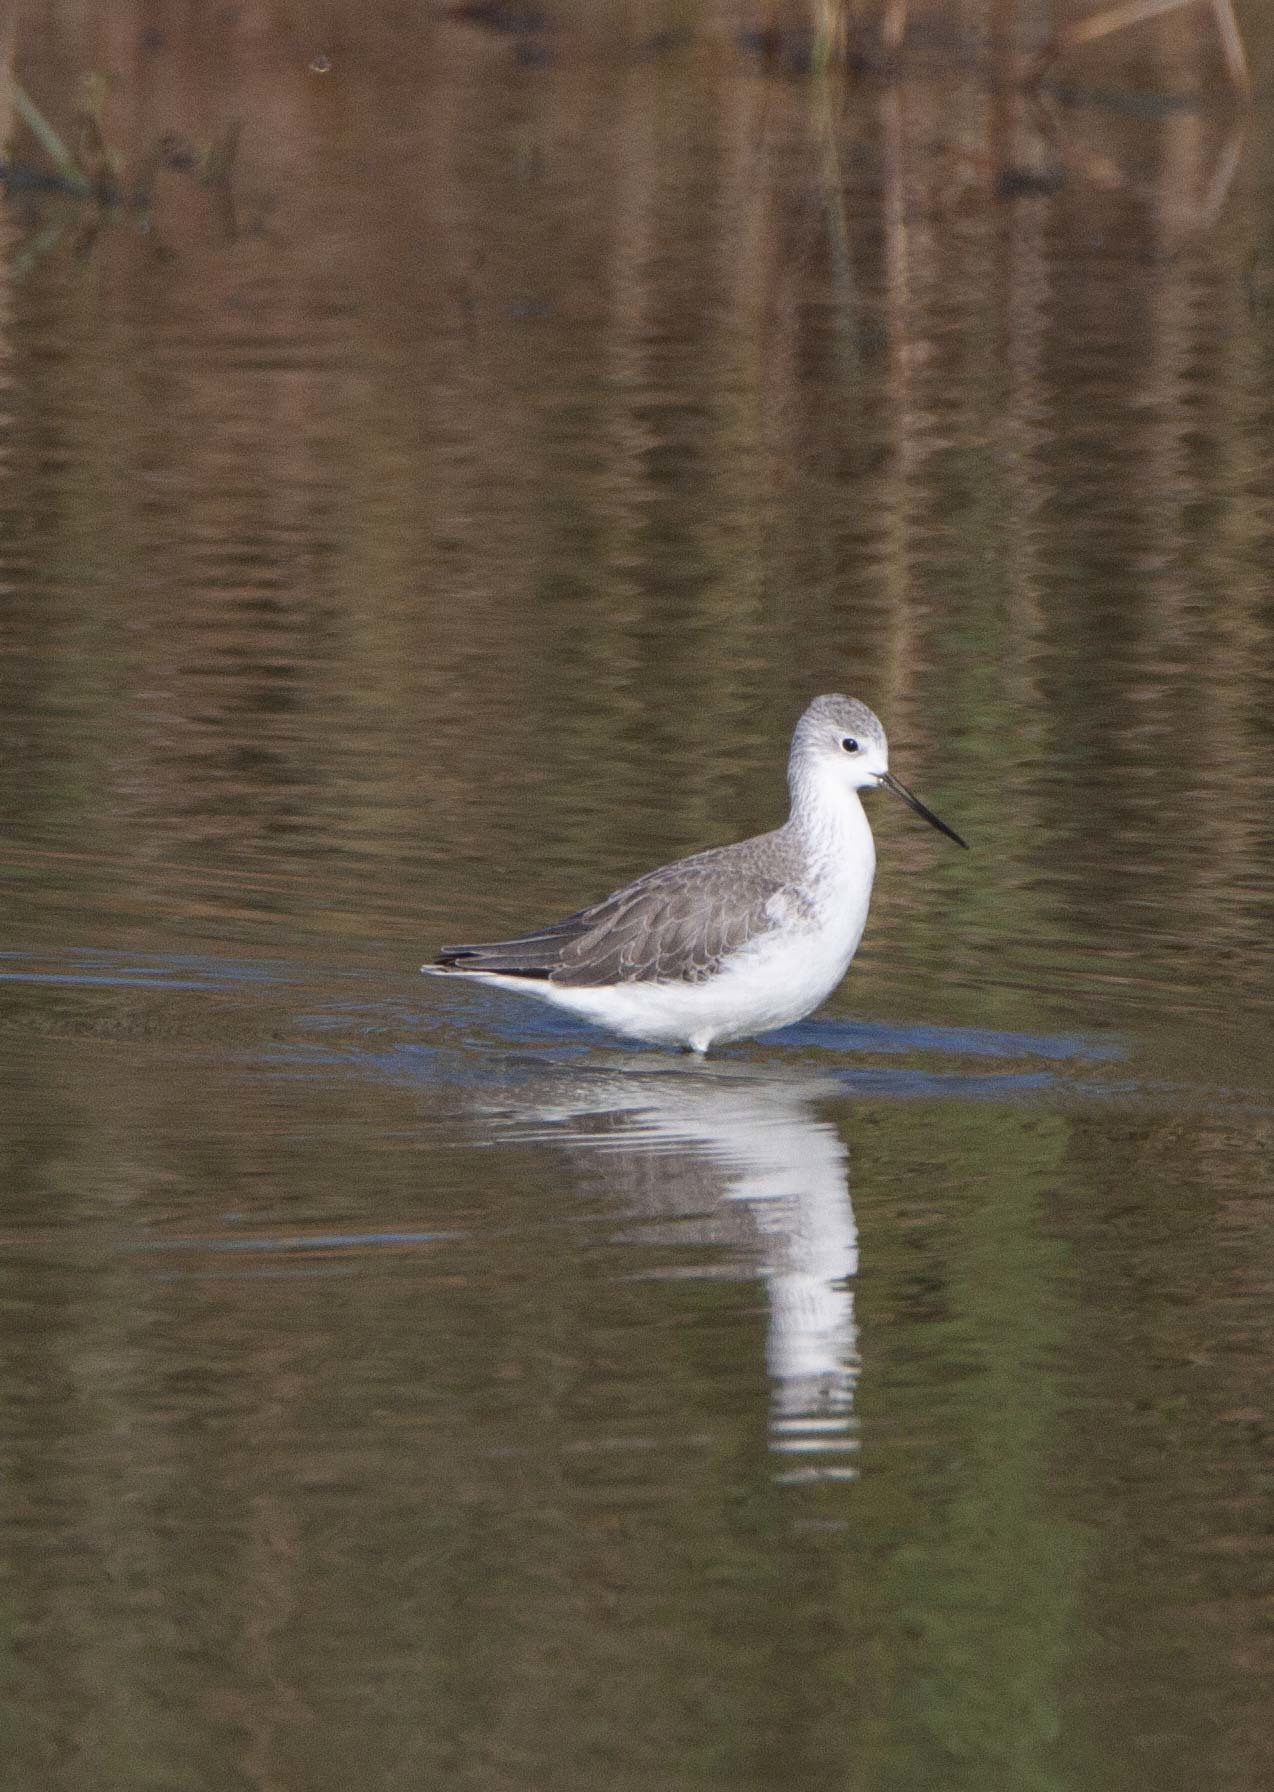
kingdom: Animalia
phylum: Chordata
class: Aves
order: Charadriiformes
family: Scolopacidae
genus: Tringa
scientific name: Tringa stagnatilis
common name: Marsh sandpiper
